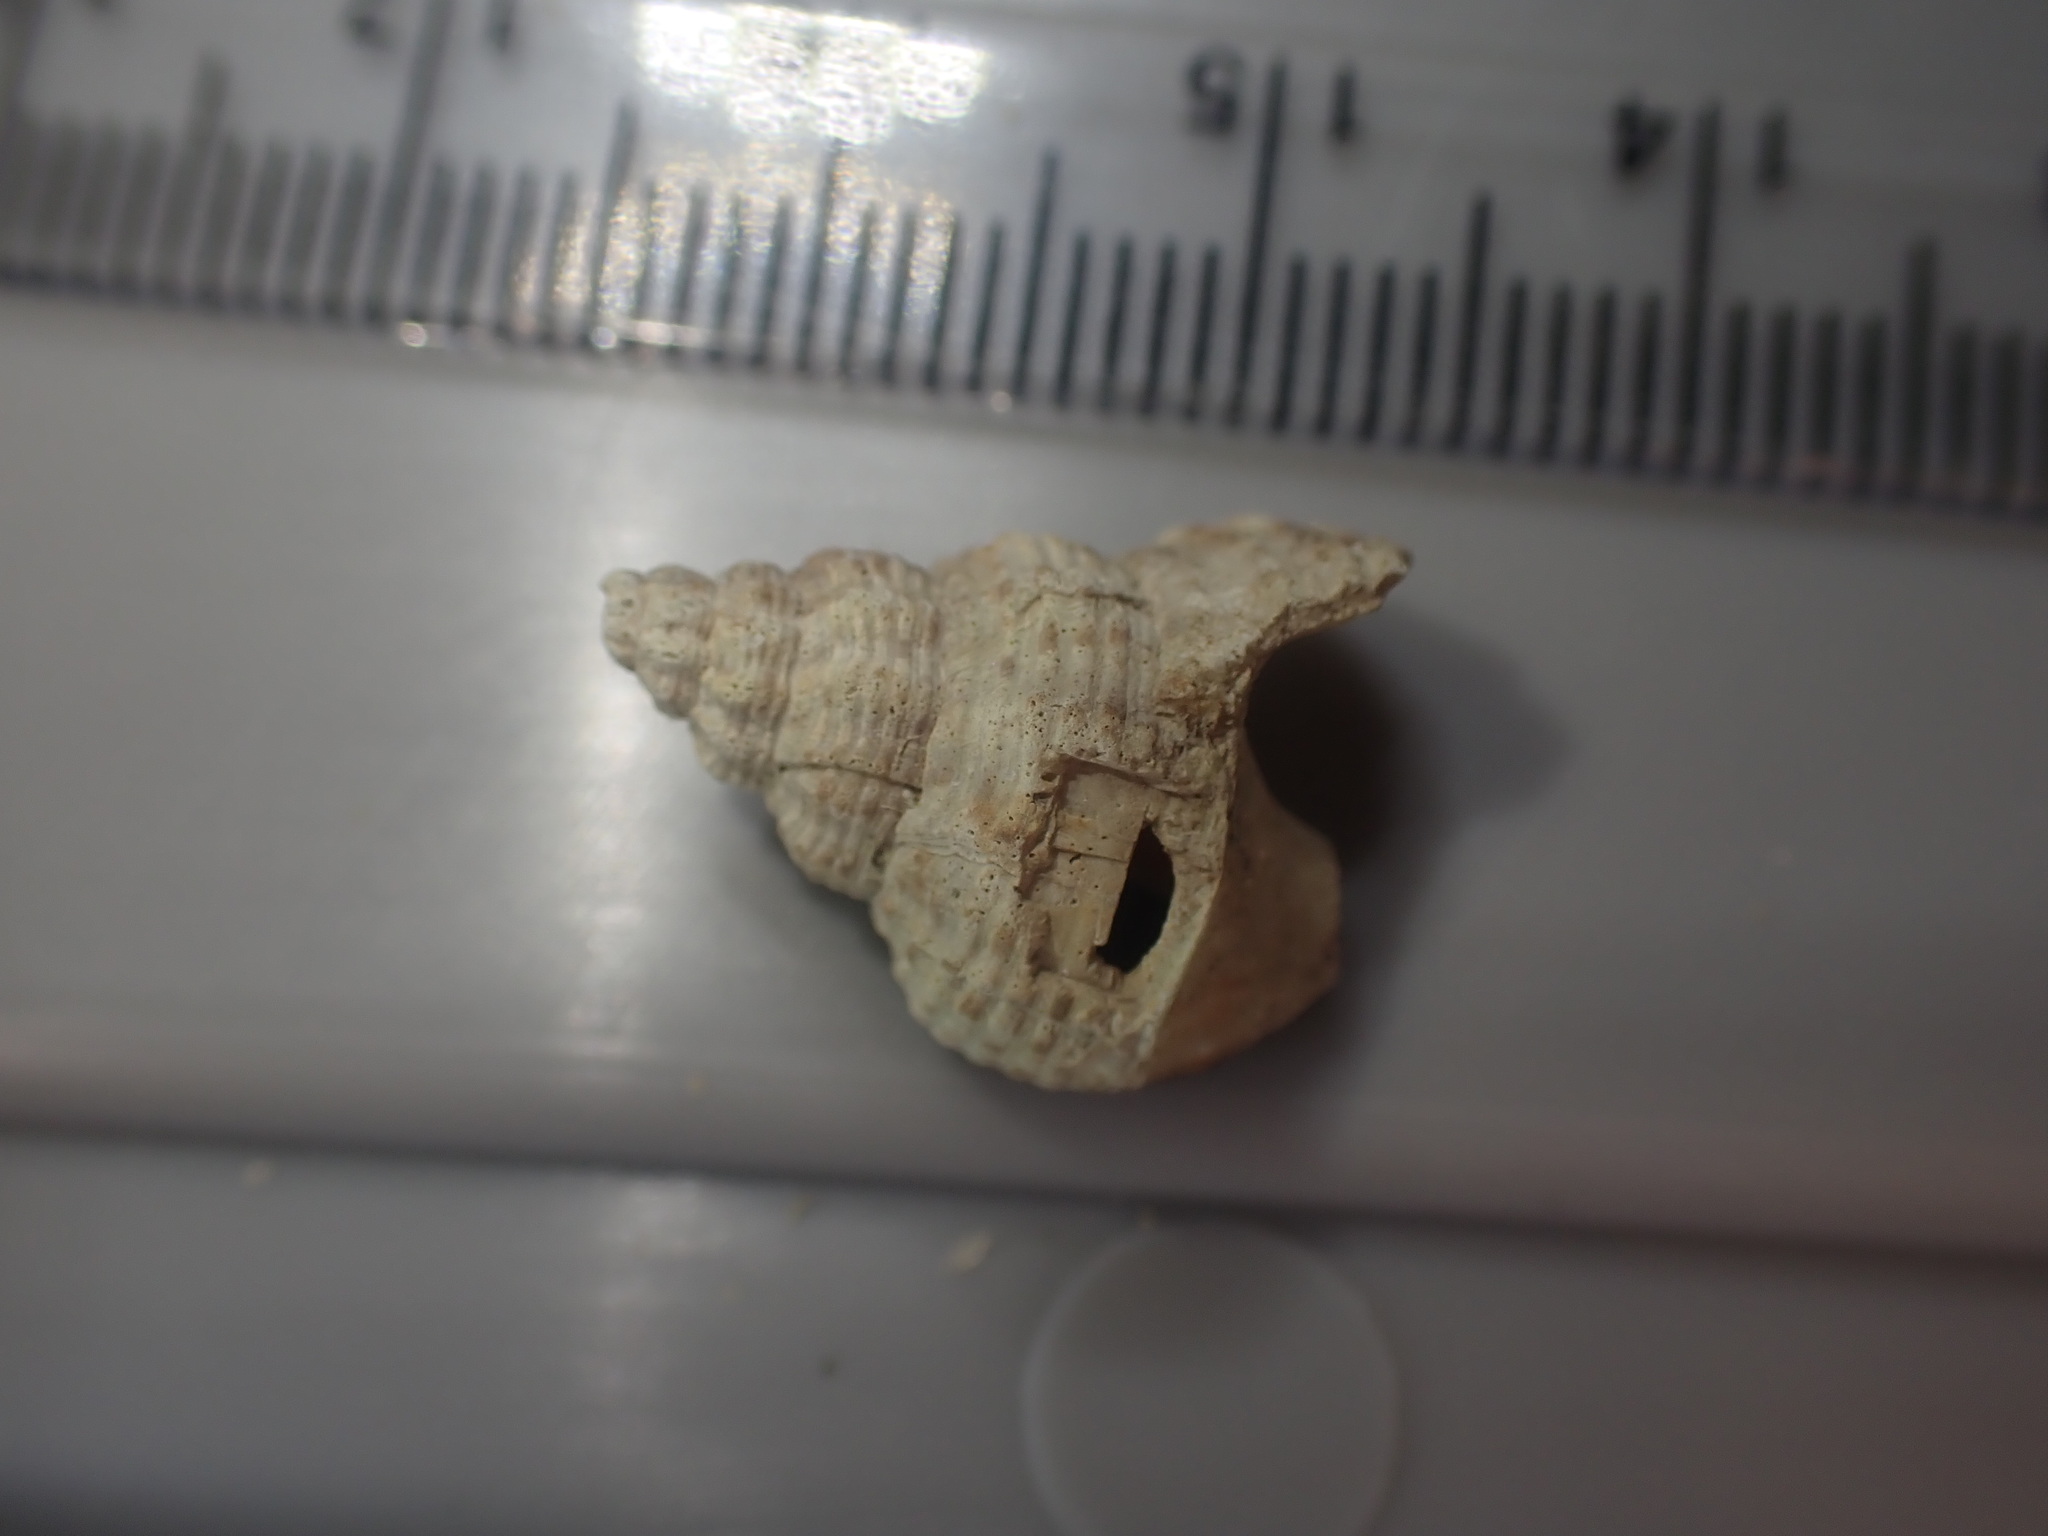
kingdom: Animalia
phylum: Mollusca
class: Gastropoda
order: Neogastropoda
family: Cominellidae
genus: Cominella
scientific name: Cominella adspersa
